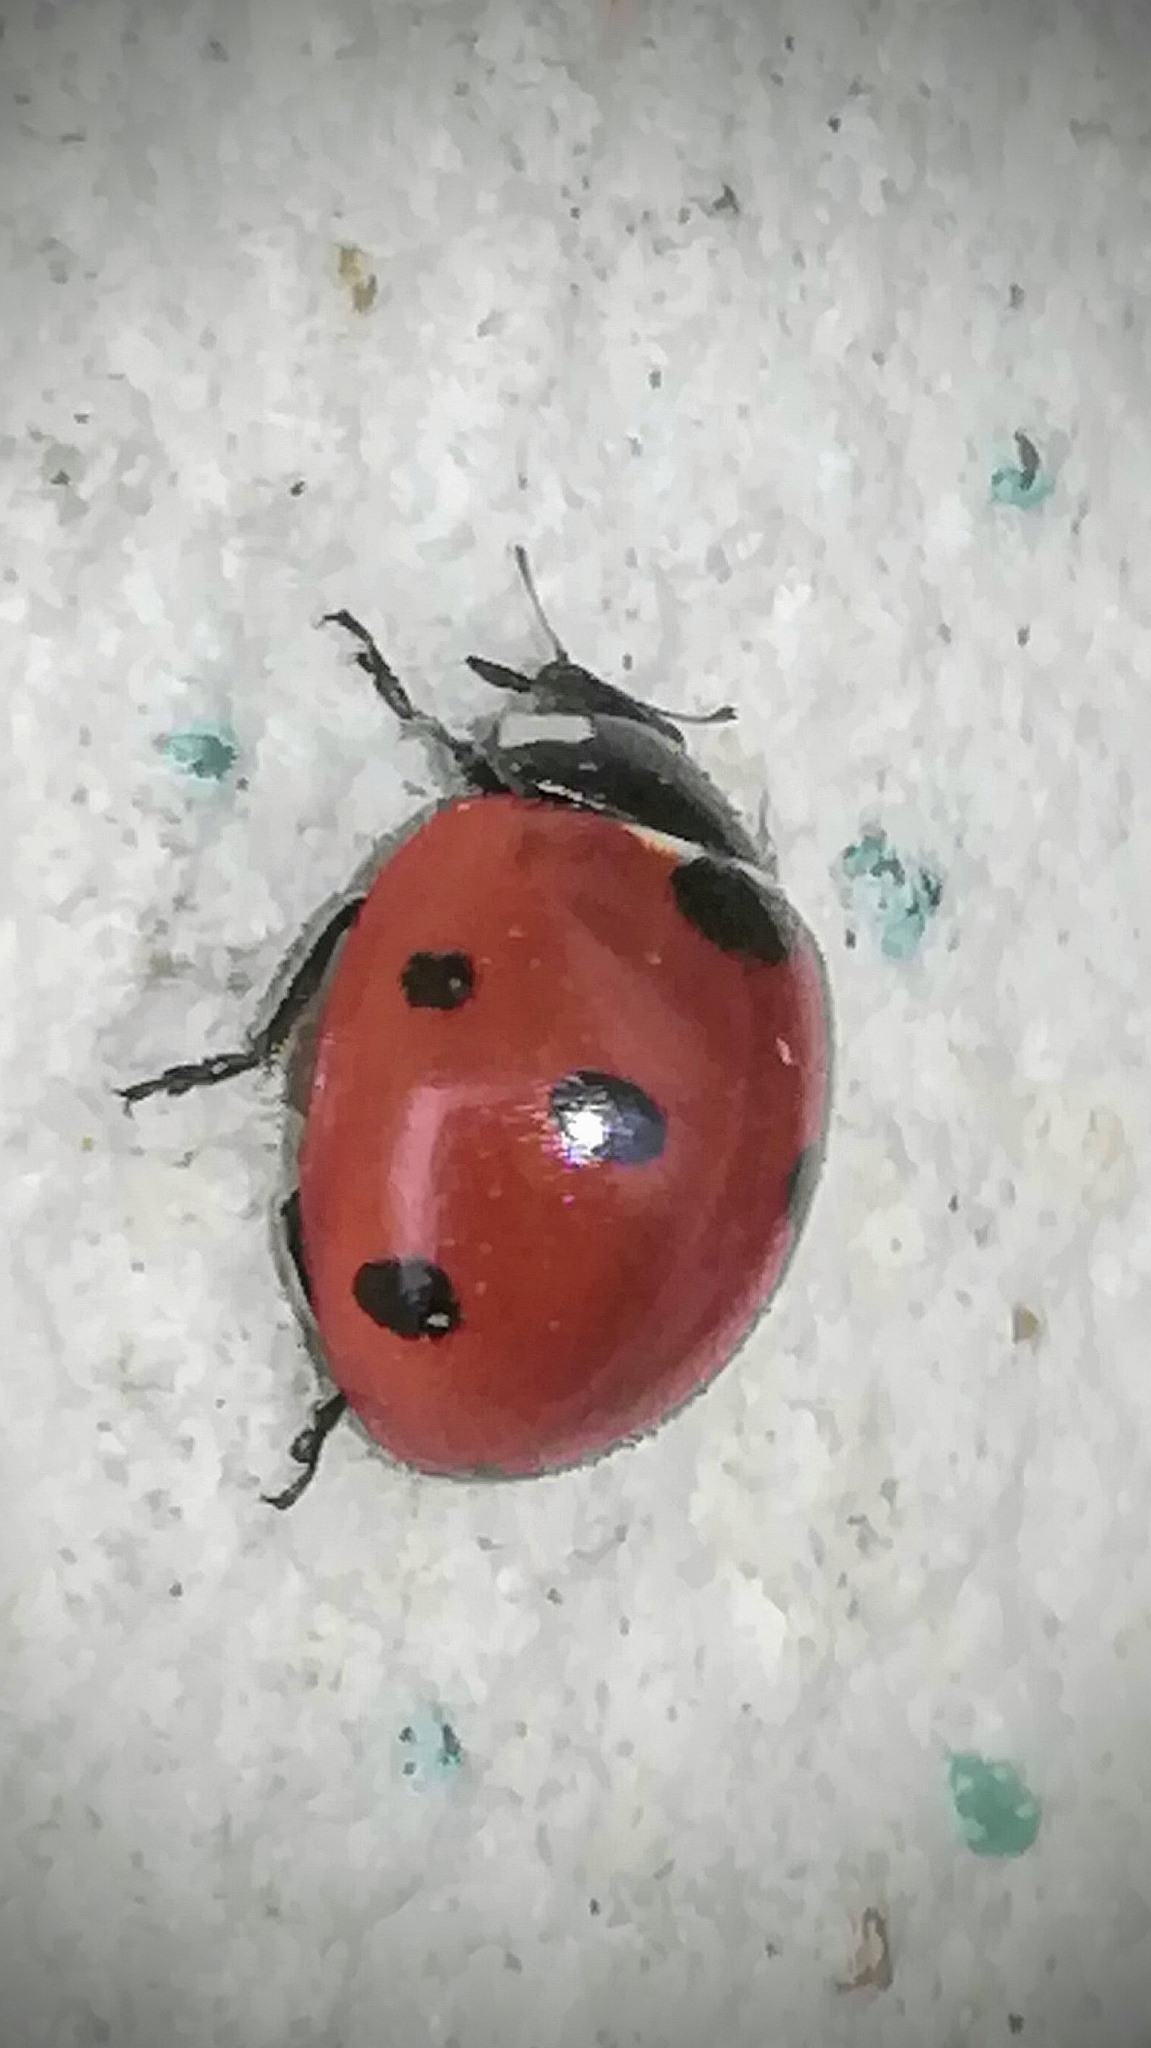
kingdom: Animalia
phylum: Arthropoda
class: Insecta
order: Coleoptera
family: Coccinellidae
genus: Coccinella
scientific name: Coccinella septempunctata
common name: Sevenspotted lady beetle
